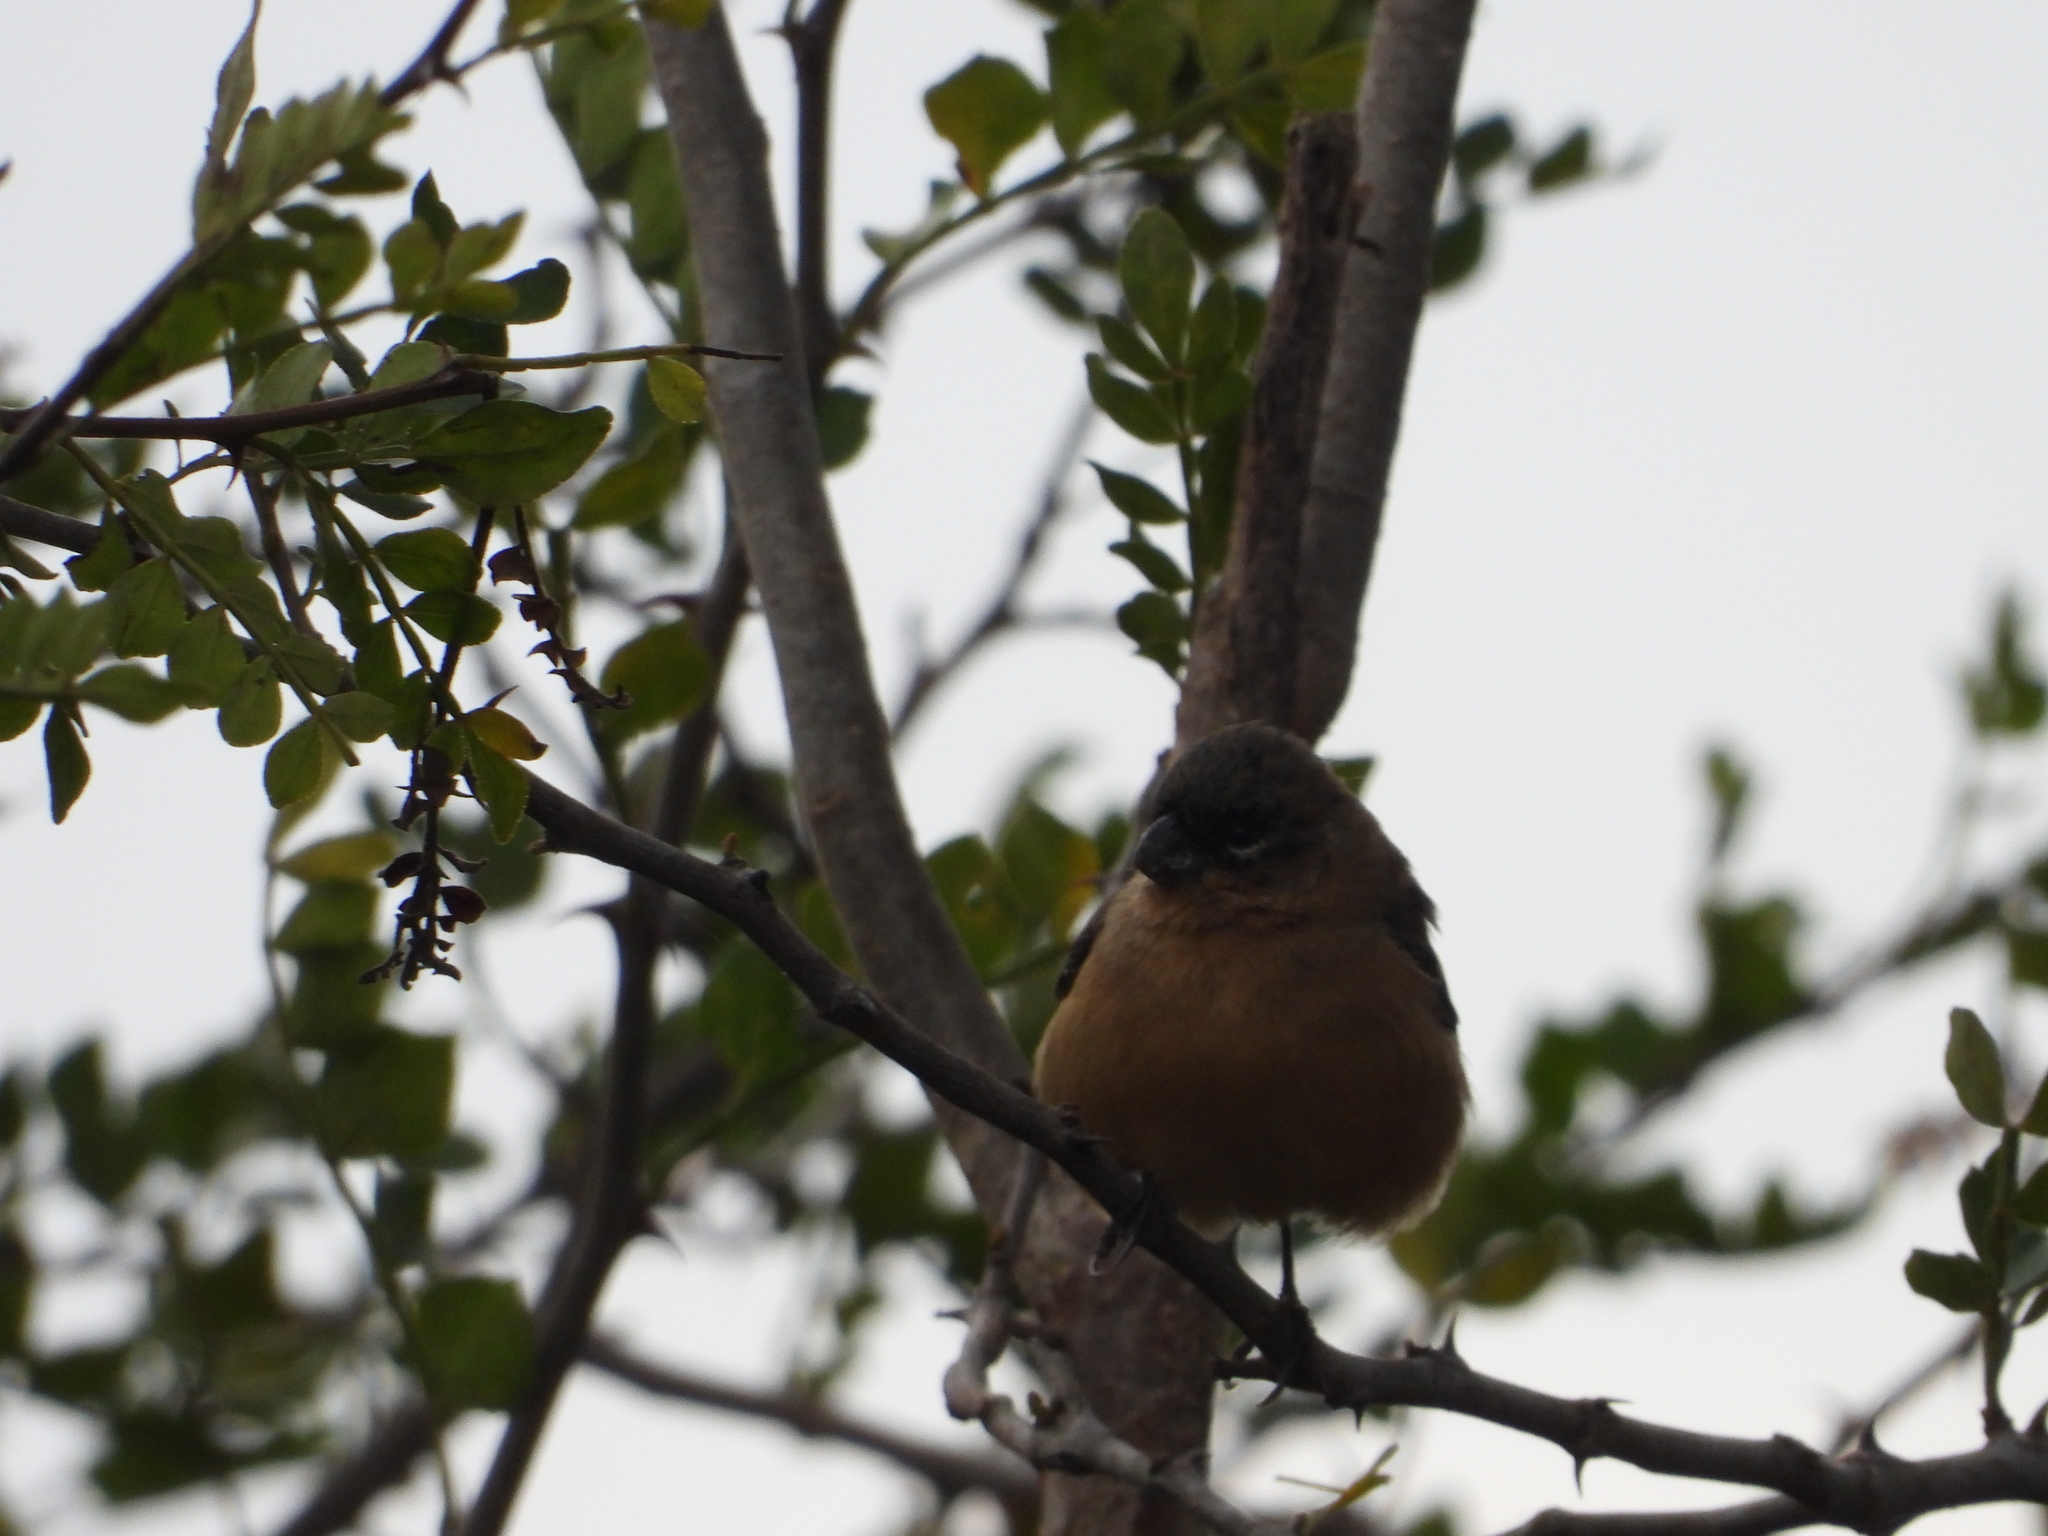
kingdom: Animalia
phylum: Chordata
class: Aves
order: Passeriformes
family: Thraupidae
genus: Sporophila
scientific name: Sporophila morelleti
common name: Morelet's seedeater
